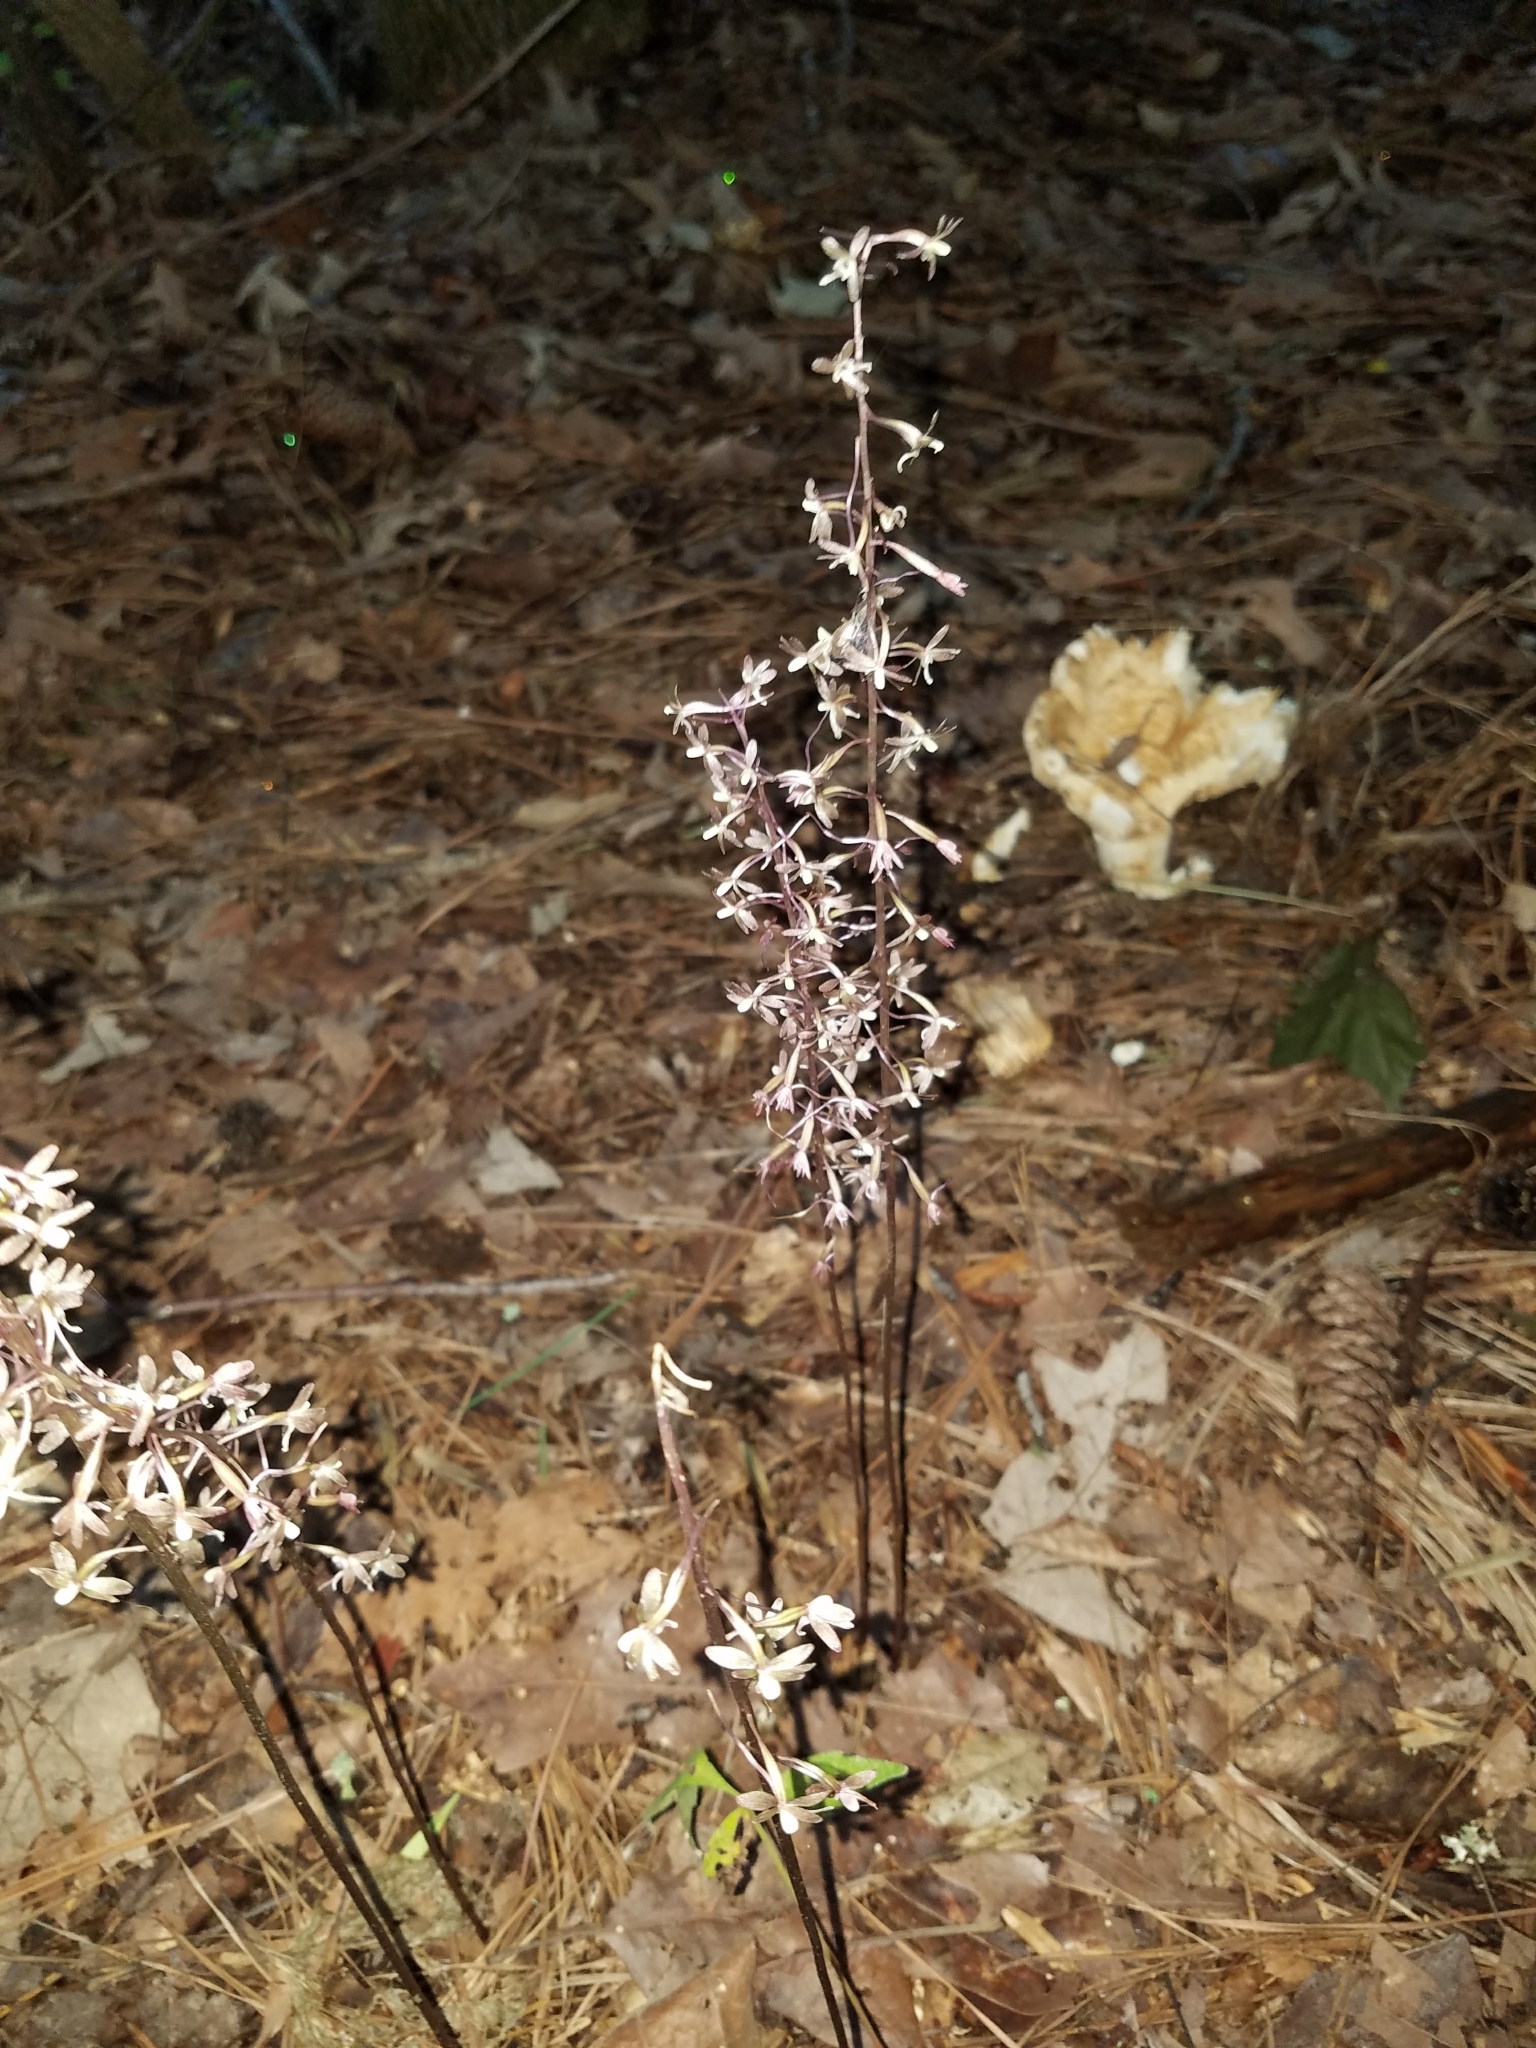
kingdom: Plantae
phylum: Tracheophyta
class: Liliopsida
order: Asparagales
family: Orchidaceae
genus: Tipularia
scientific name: Tipularia discolor
